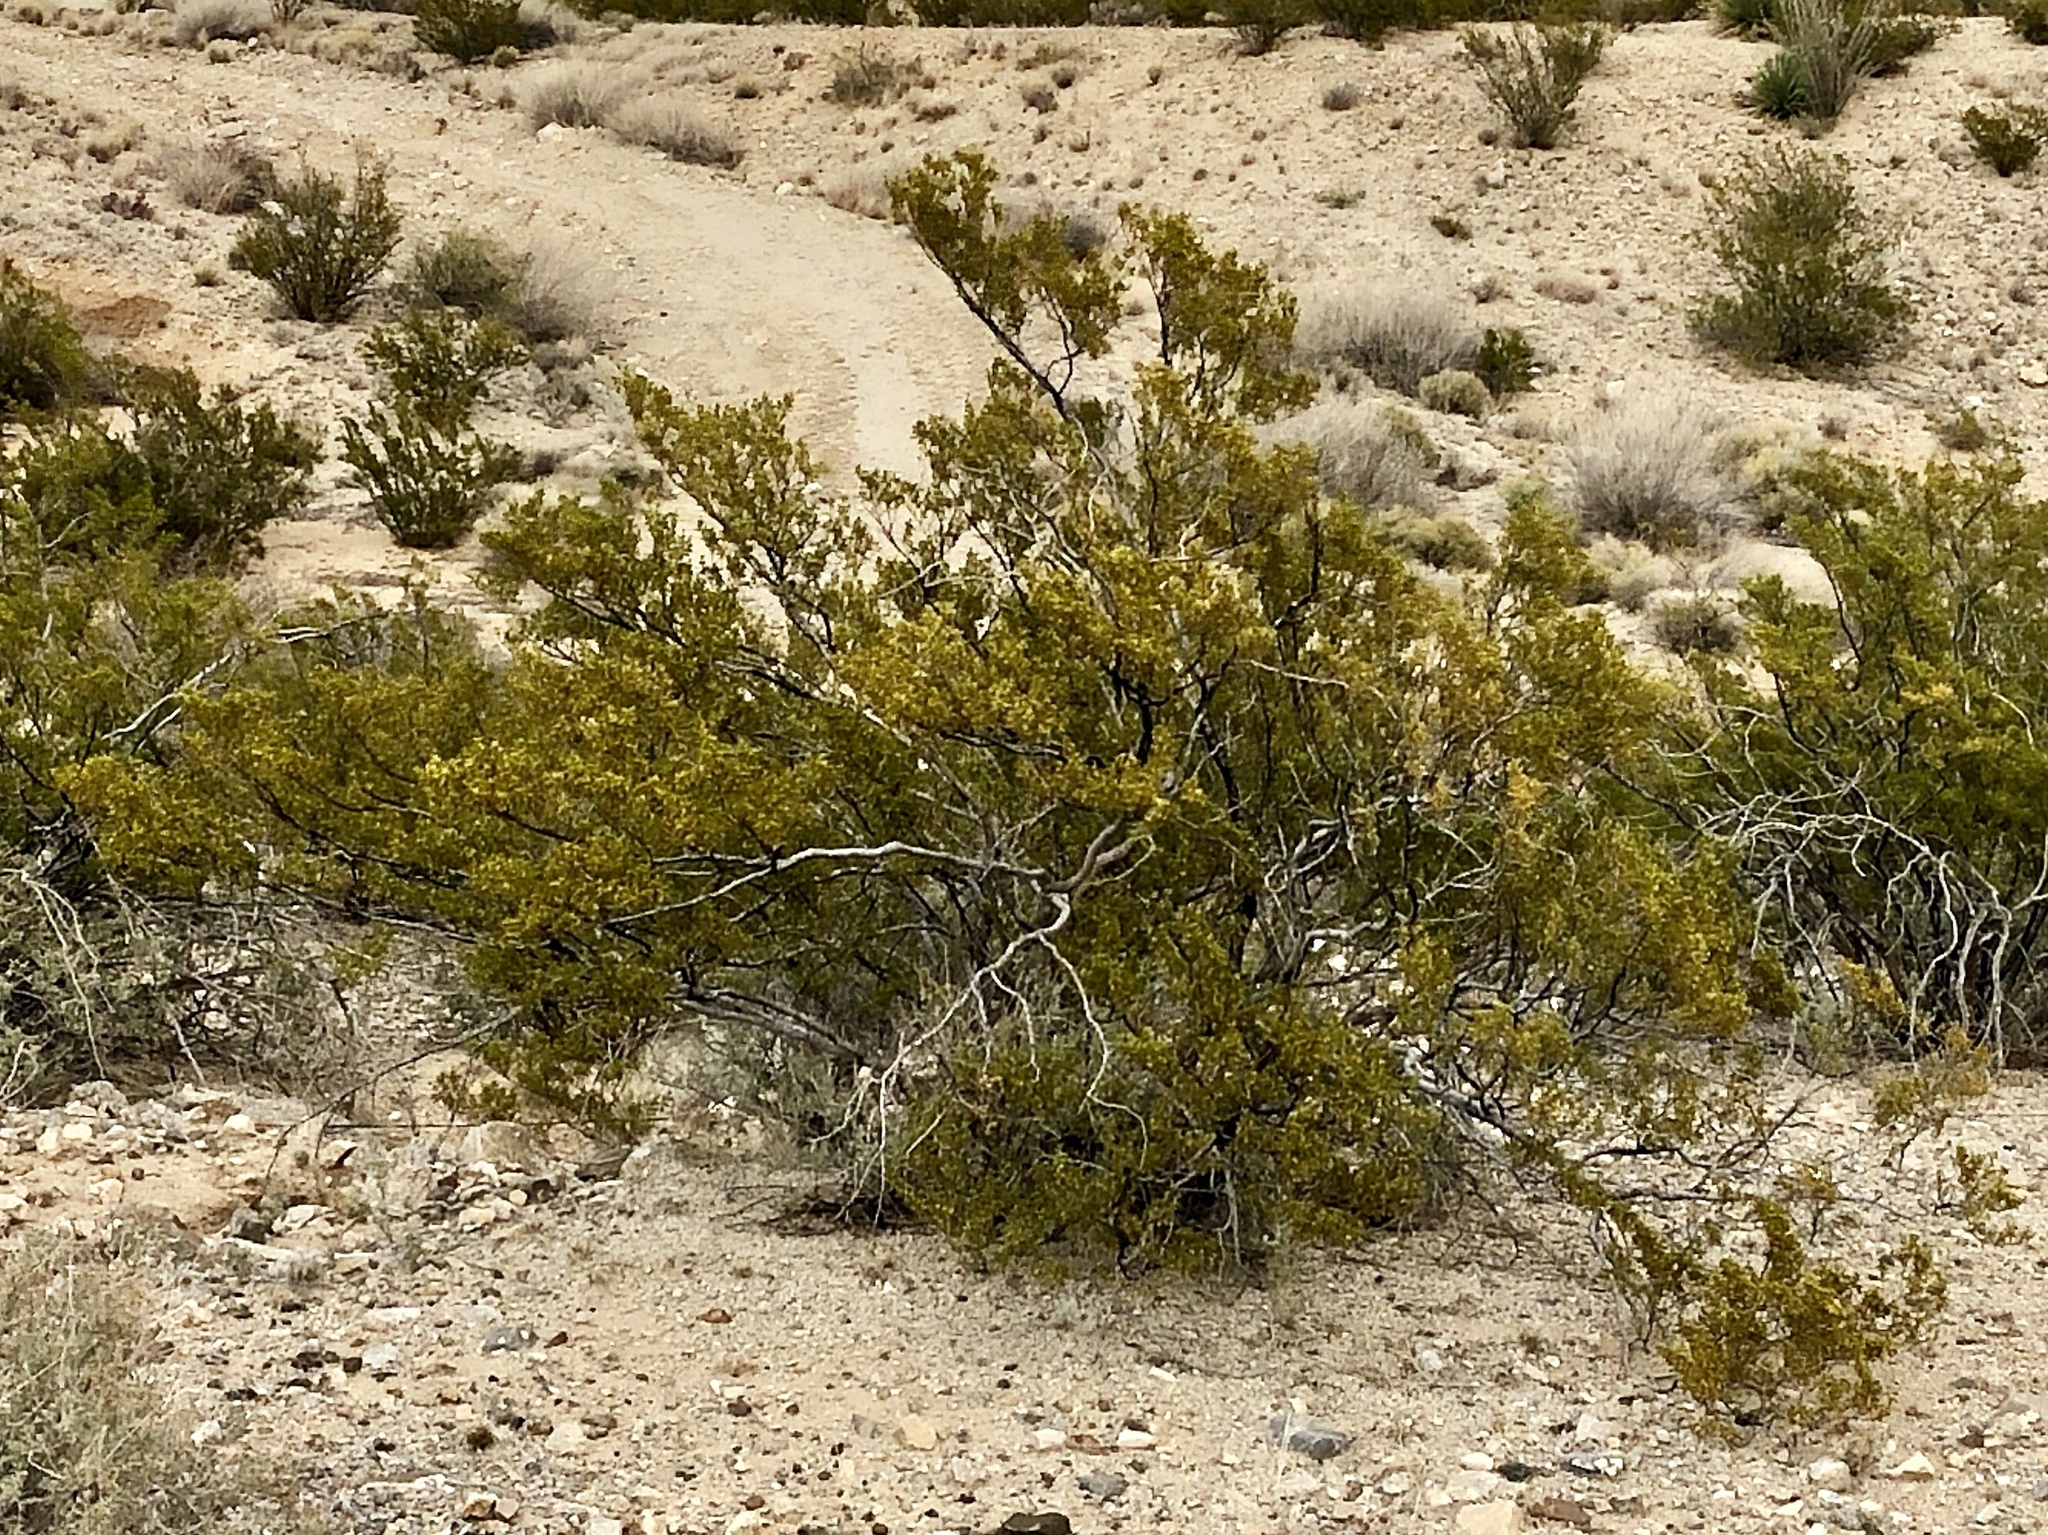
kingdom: Plantae
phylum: Tracheophyta
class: Magnoliopsida
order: Zygophyllales
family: Zygophyllaceae
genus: Larrea
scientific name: Larrea tridentata
